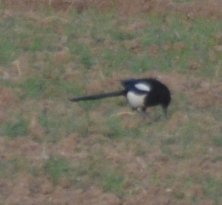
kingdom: Animalia
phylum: Chordata
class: Aves
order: Passeriformes
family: Corvidae
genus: Pica
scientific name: Pica pica
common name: Eurasian magpie
